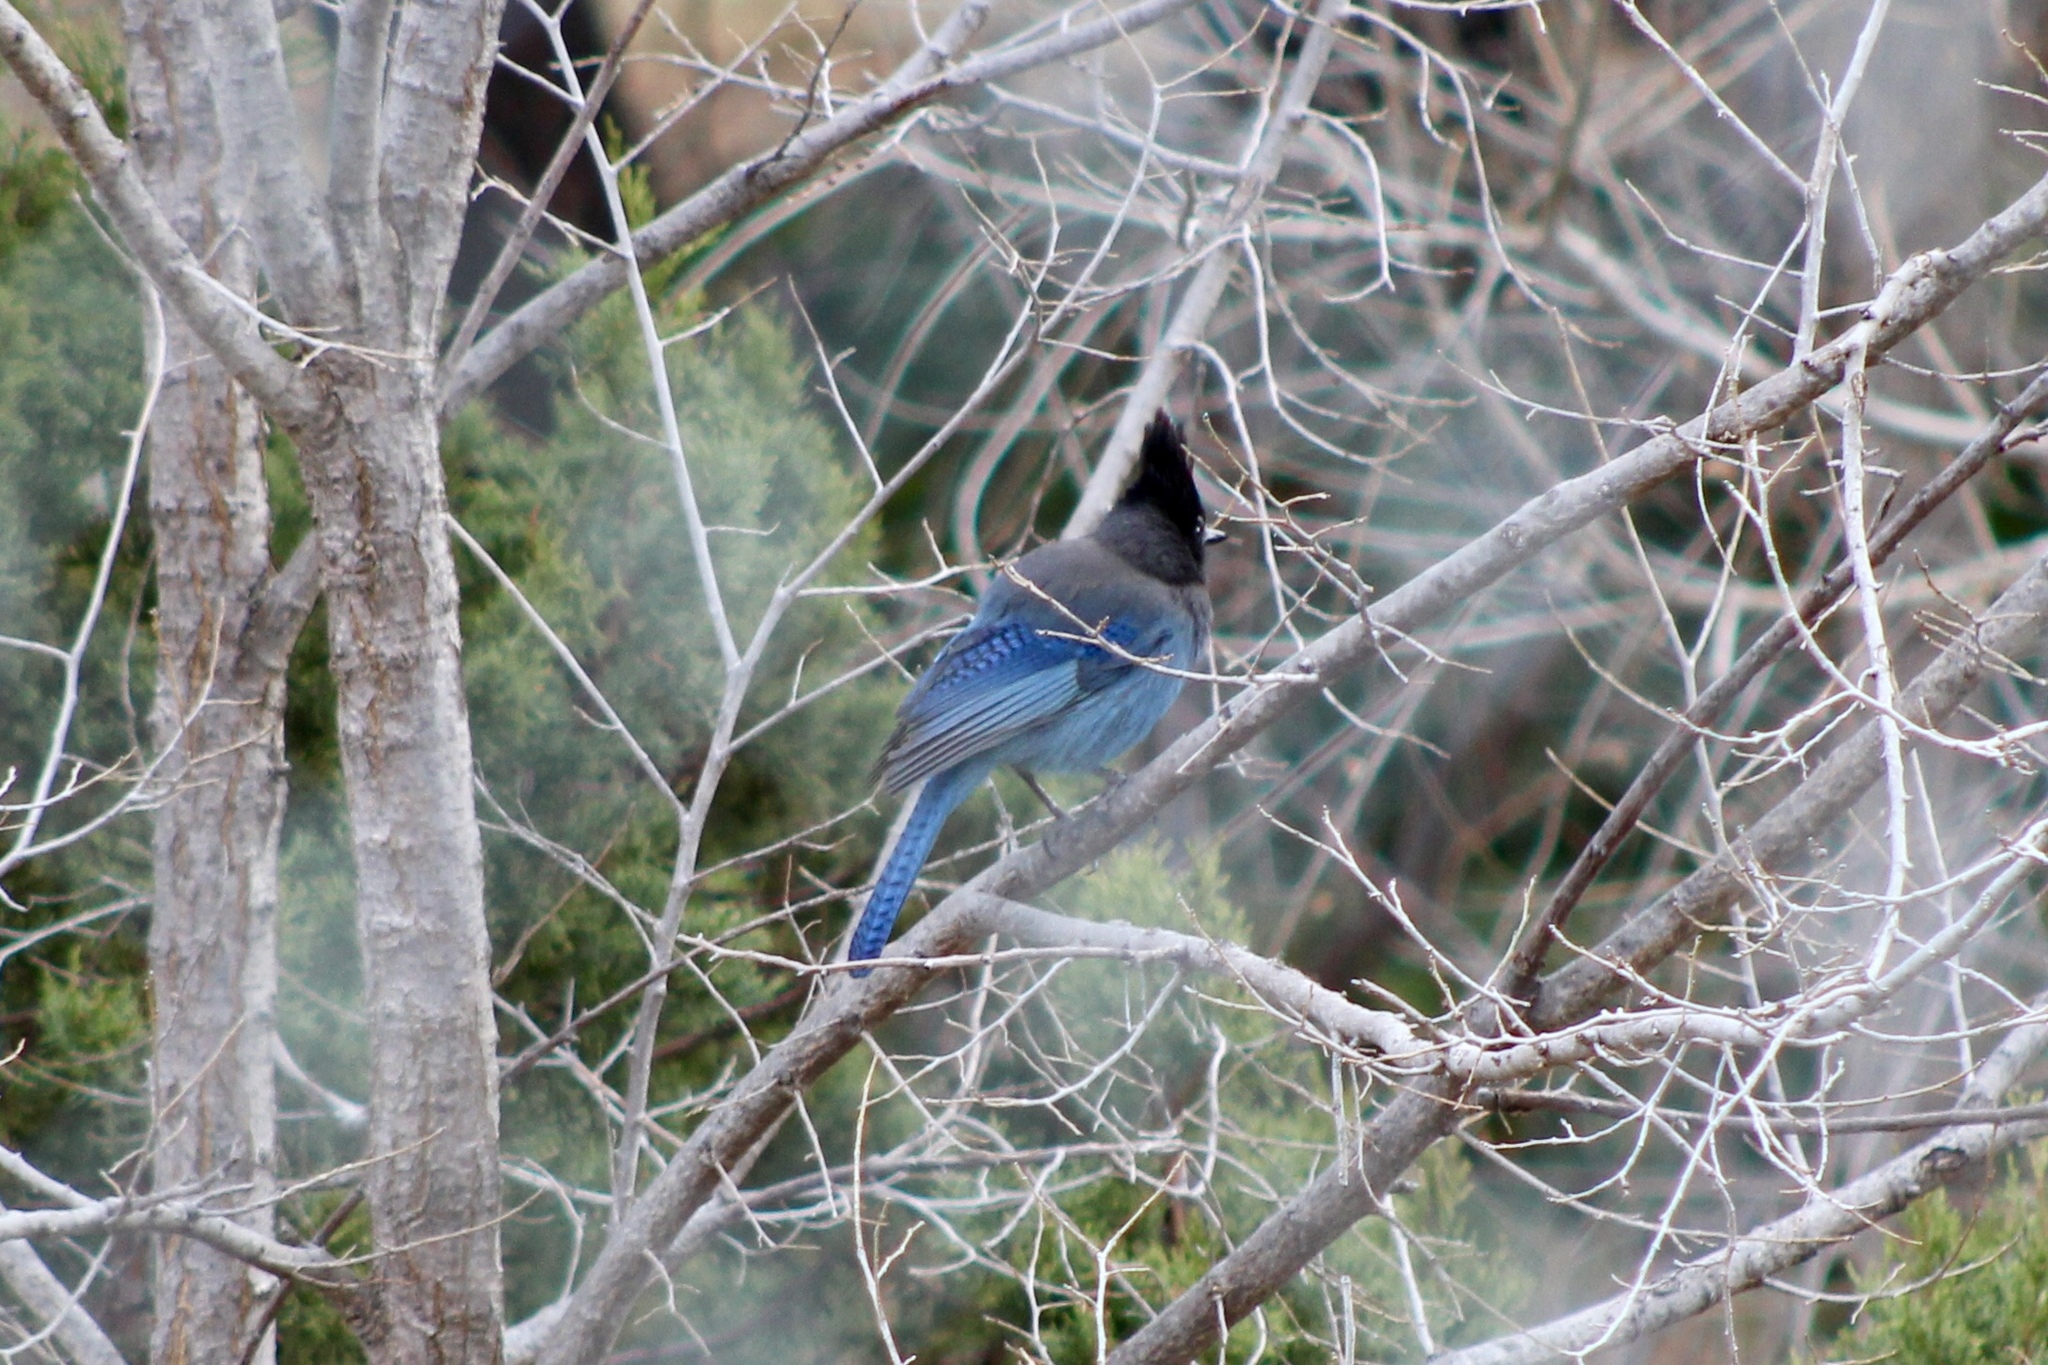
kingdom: Animalia
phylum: Chordata
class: Aves
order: Passeriformes
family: Corvidae
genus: Cyanocitta
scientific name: Cyanocitta stelleri
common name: Steller's jay
